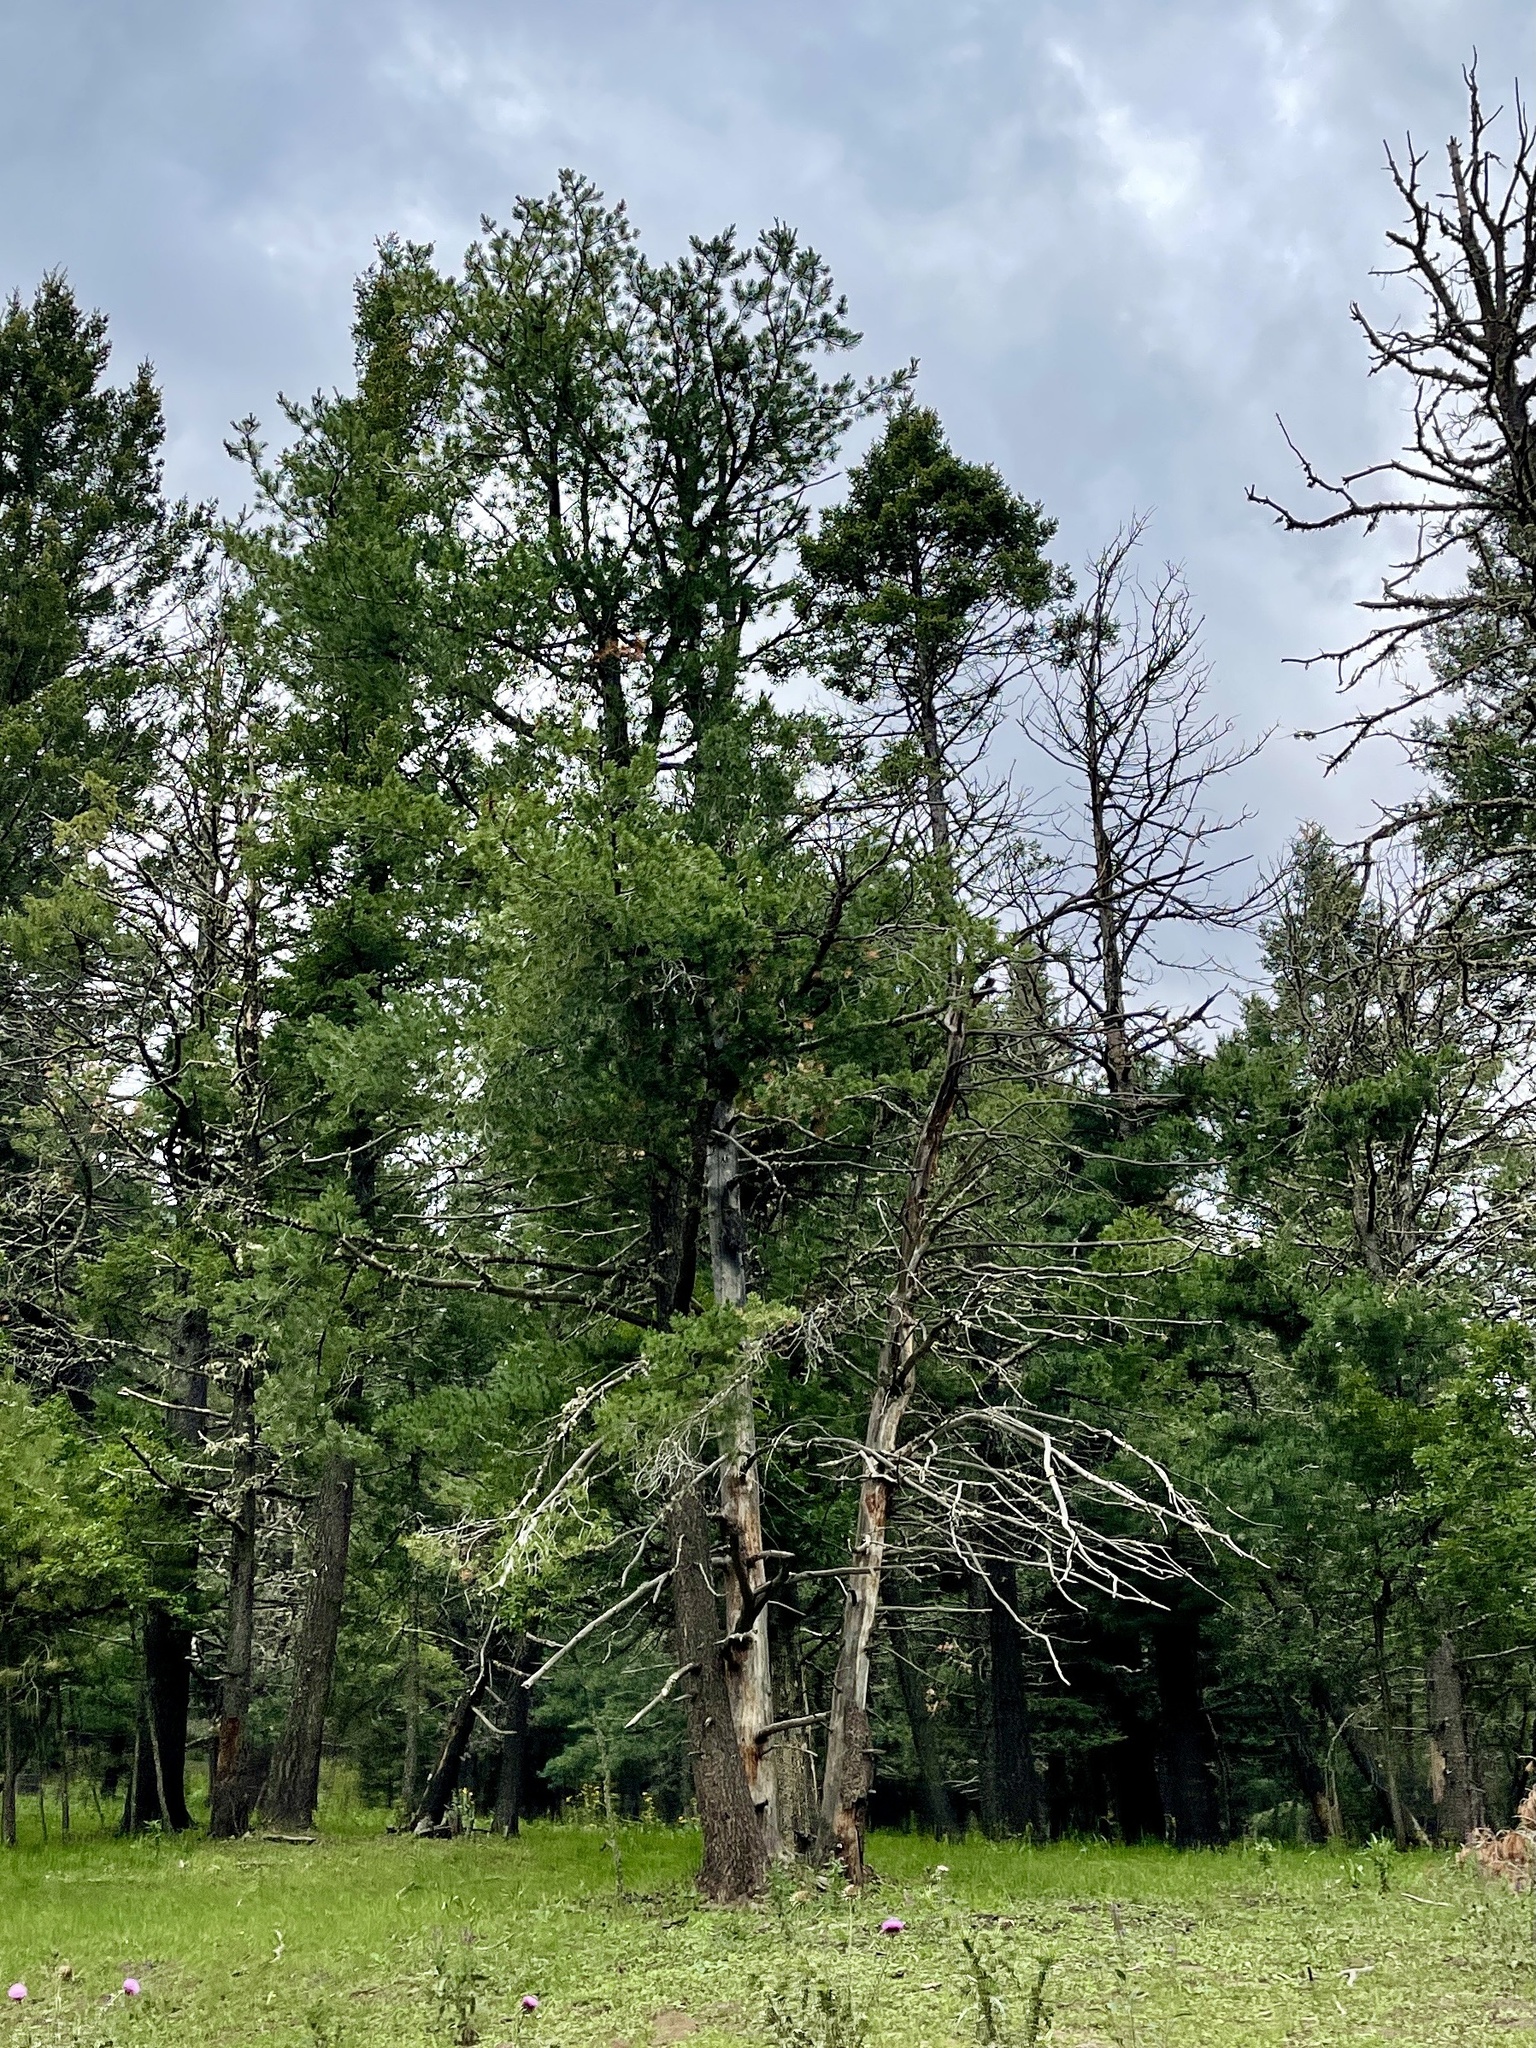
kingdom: Plantae
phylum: Tracheophyta
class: Pinopsida
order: Pinales
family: Pinaceae
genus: Pinus
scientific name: Pinus strobiformis
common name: Southwestern white pine
